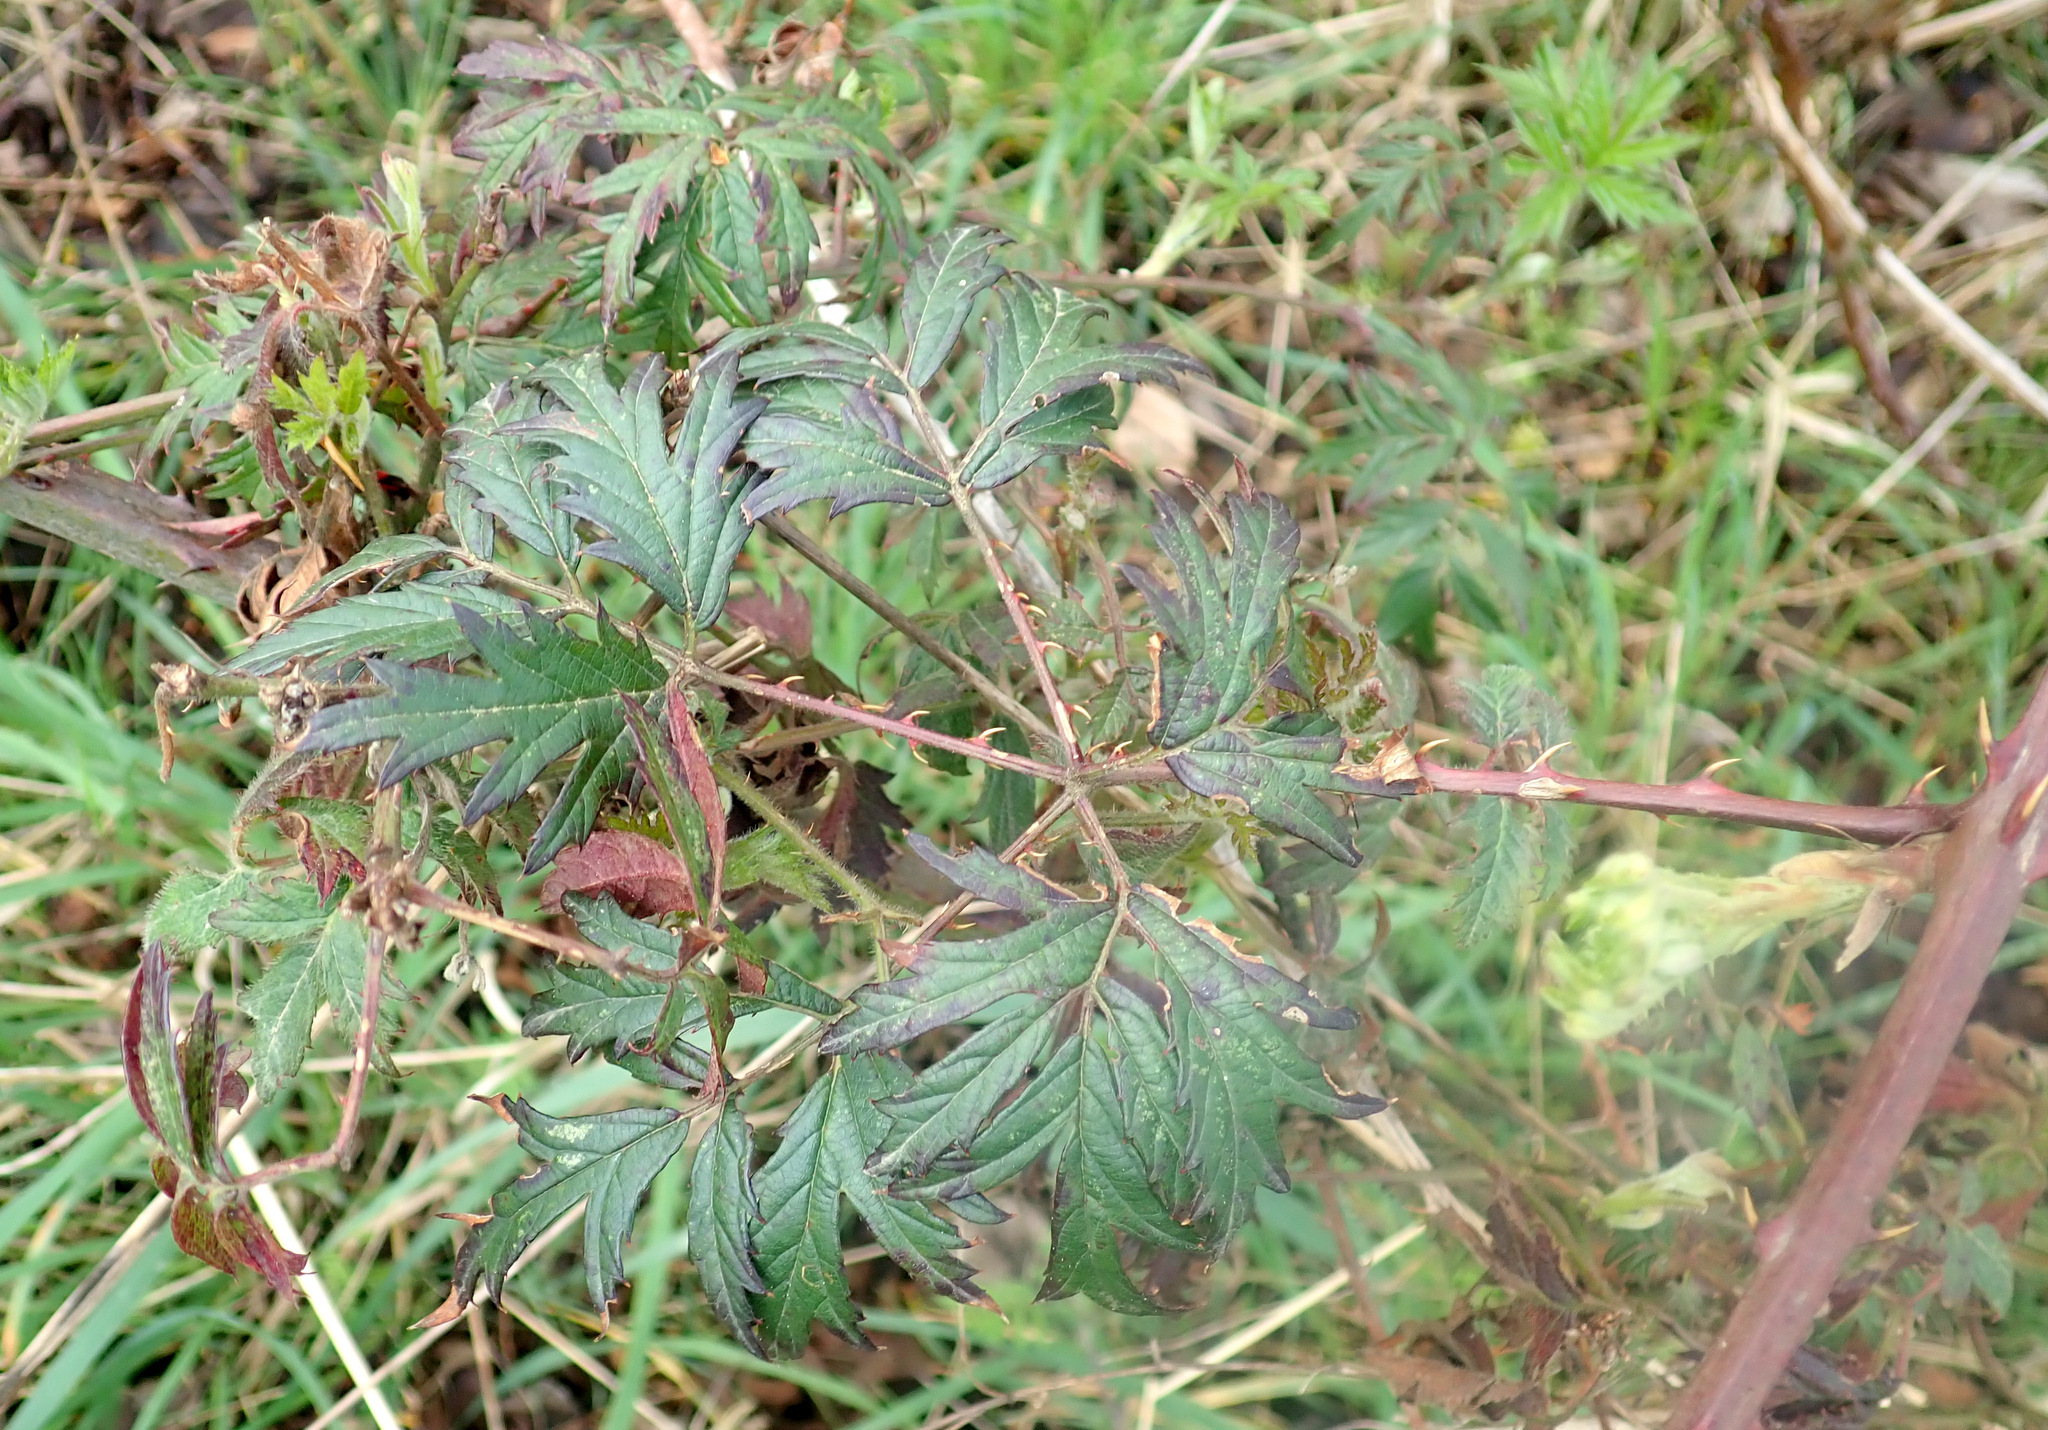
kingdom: Plantae
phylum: Tracheophyta
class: Magnoliopsida
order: Rosales
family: Rosaceae
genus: Rubus
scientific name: Rubus laciniatus
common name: Evergreen blackberry
